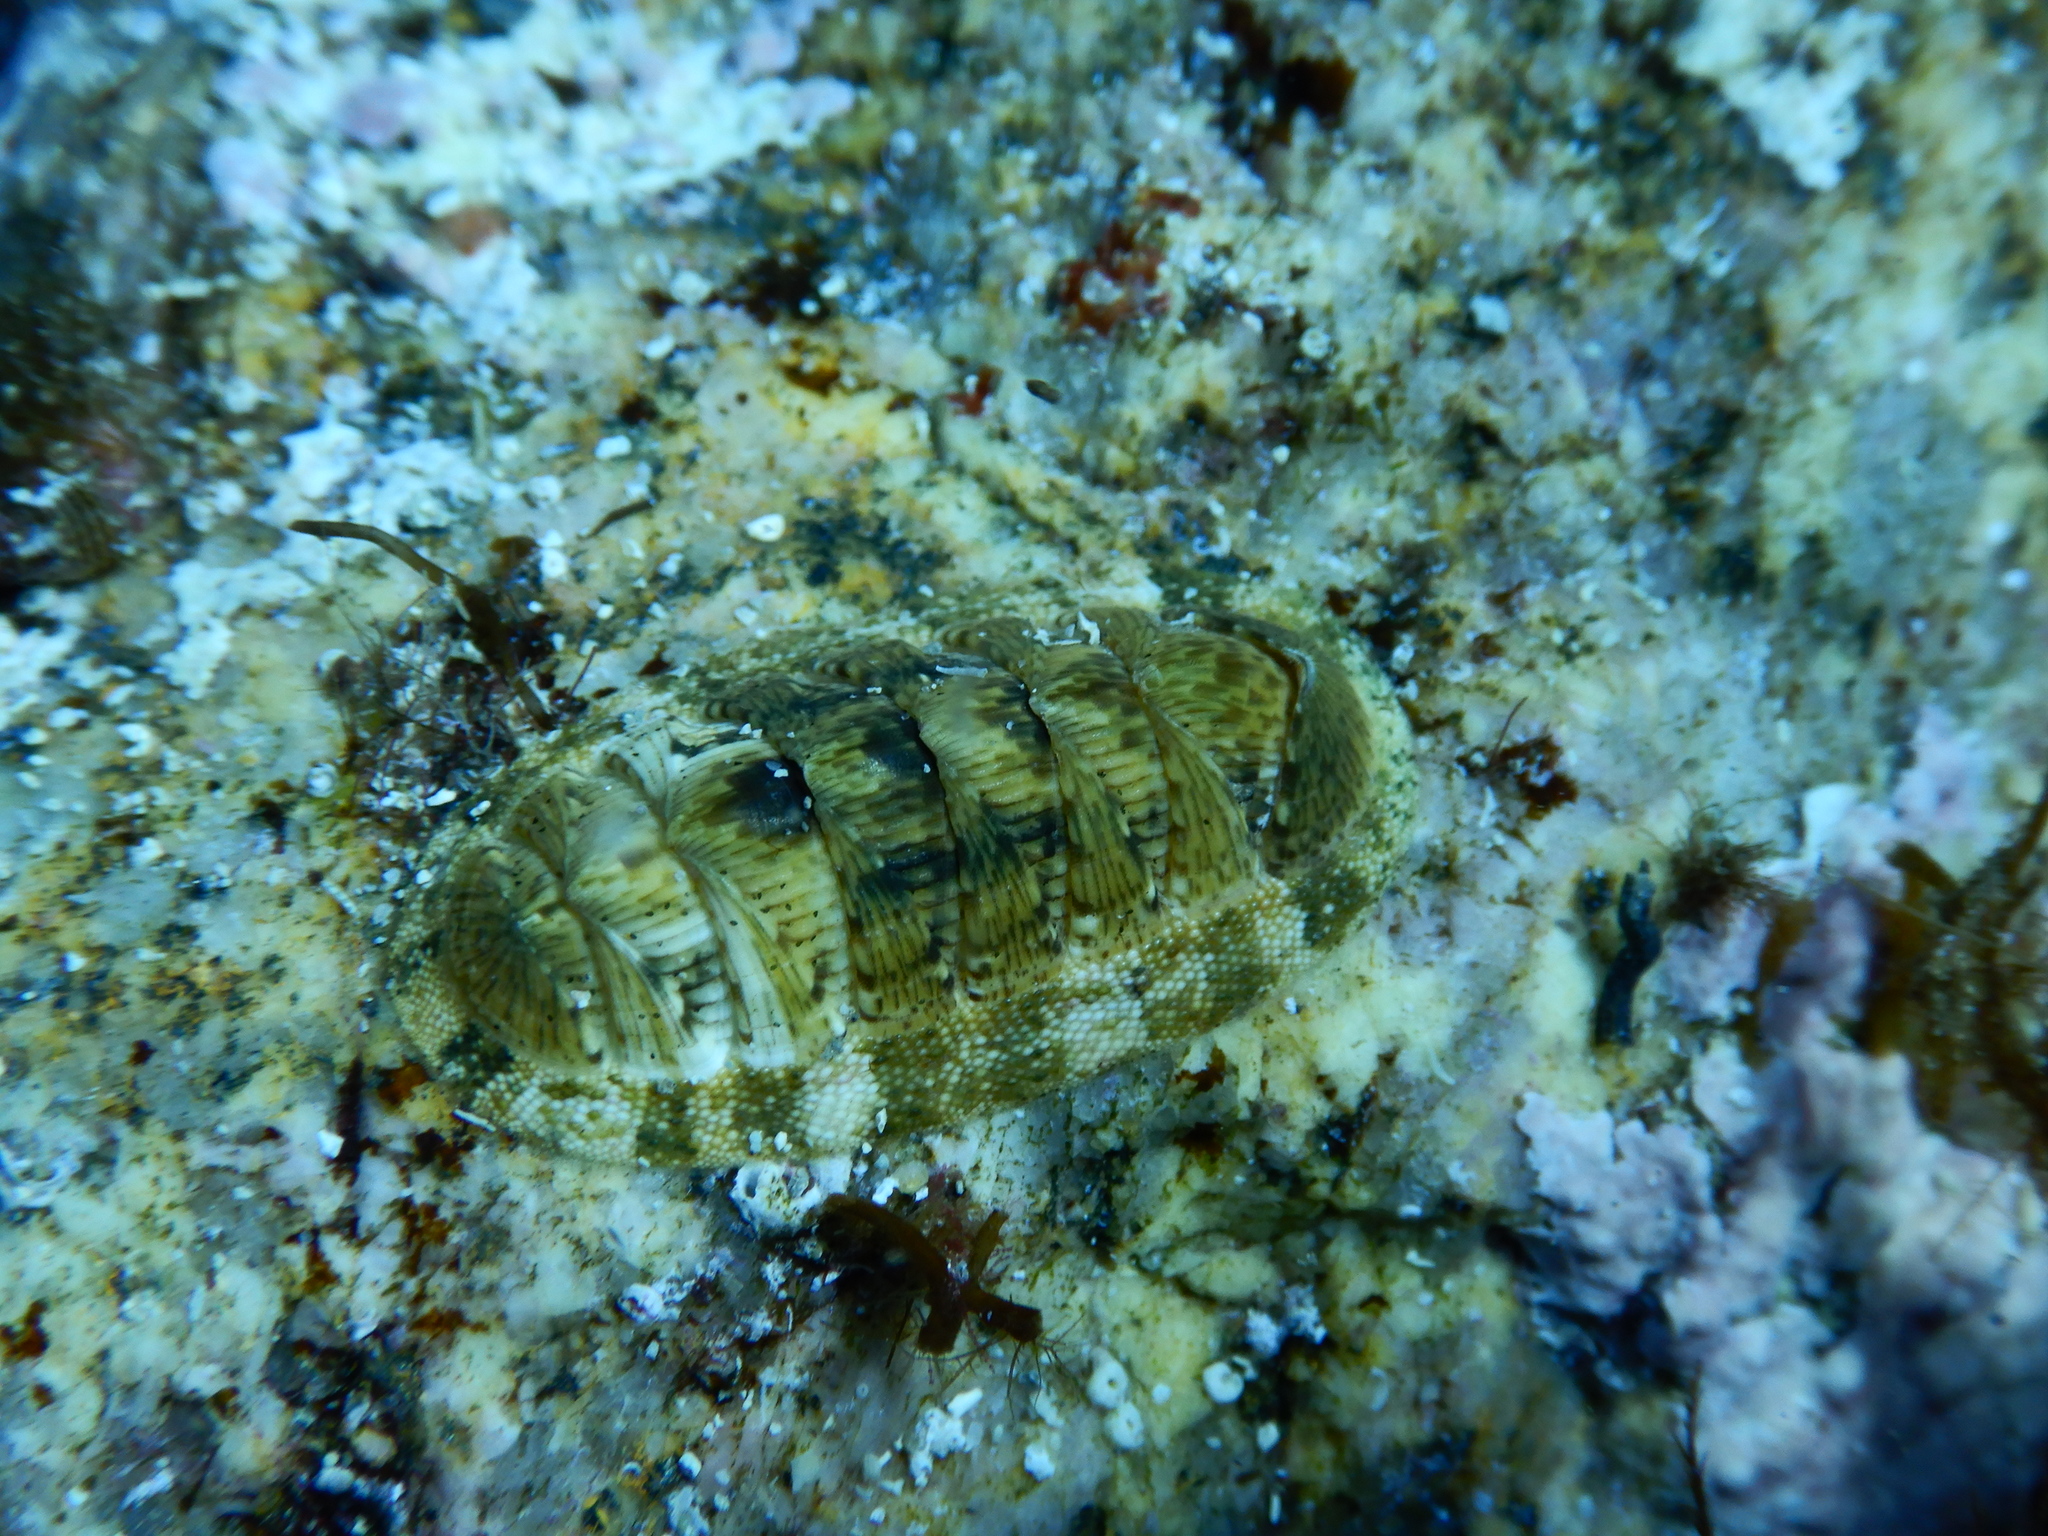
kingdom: Animalia
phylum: Mollusca
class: Polyplacophora
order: Chitonida
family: Chitonidae
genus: Rhyssoplax
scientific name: Rhyssoplax olivacea
